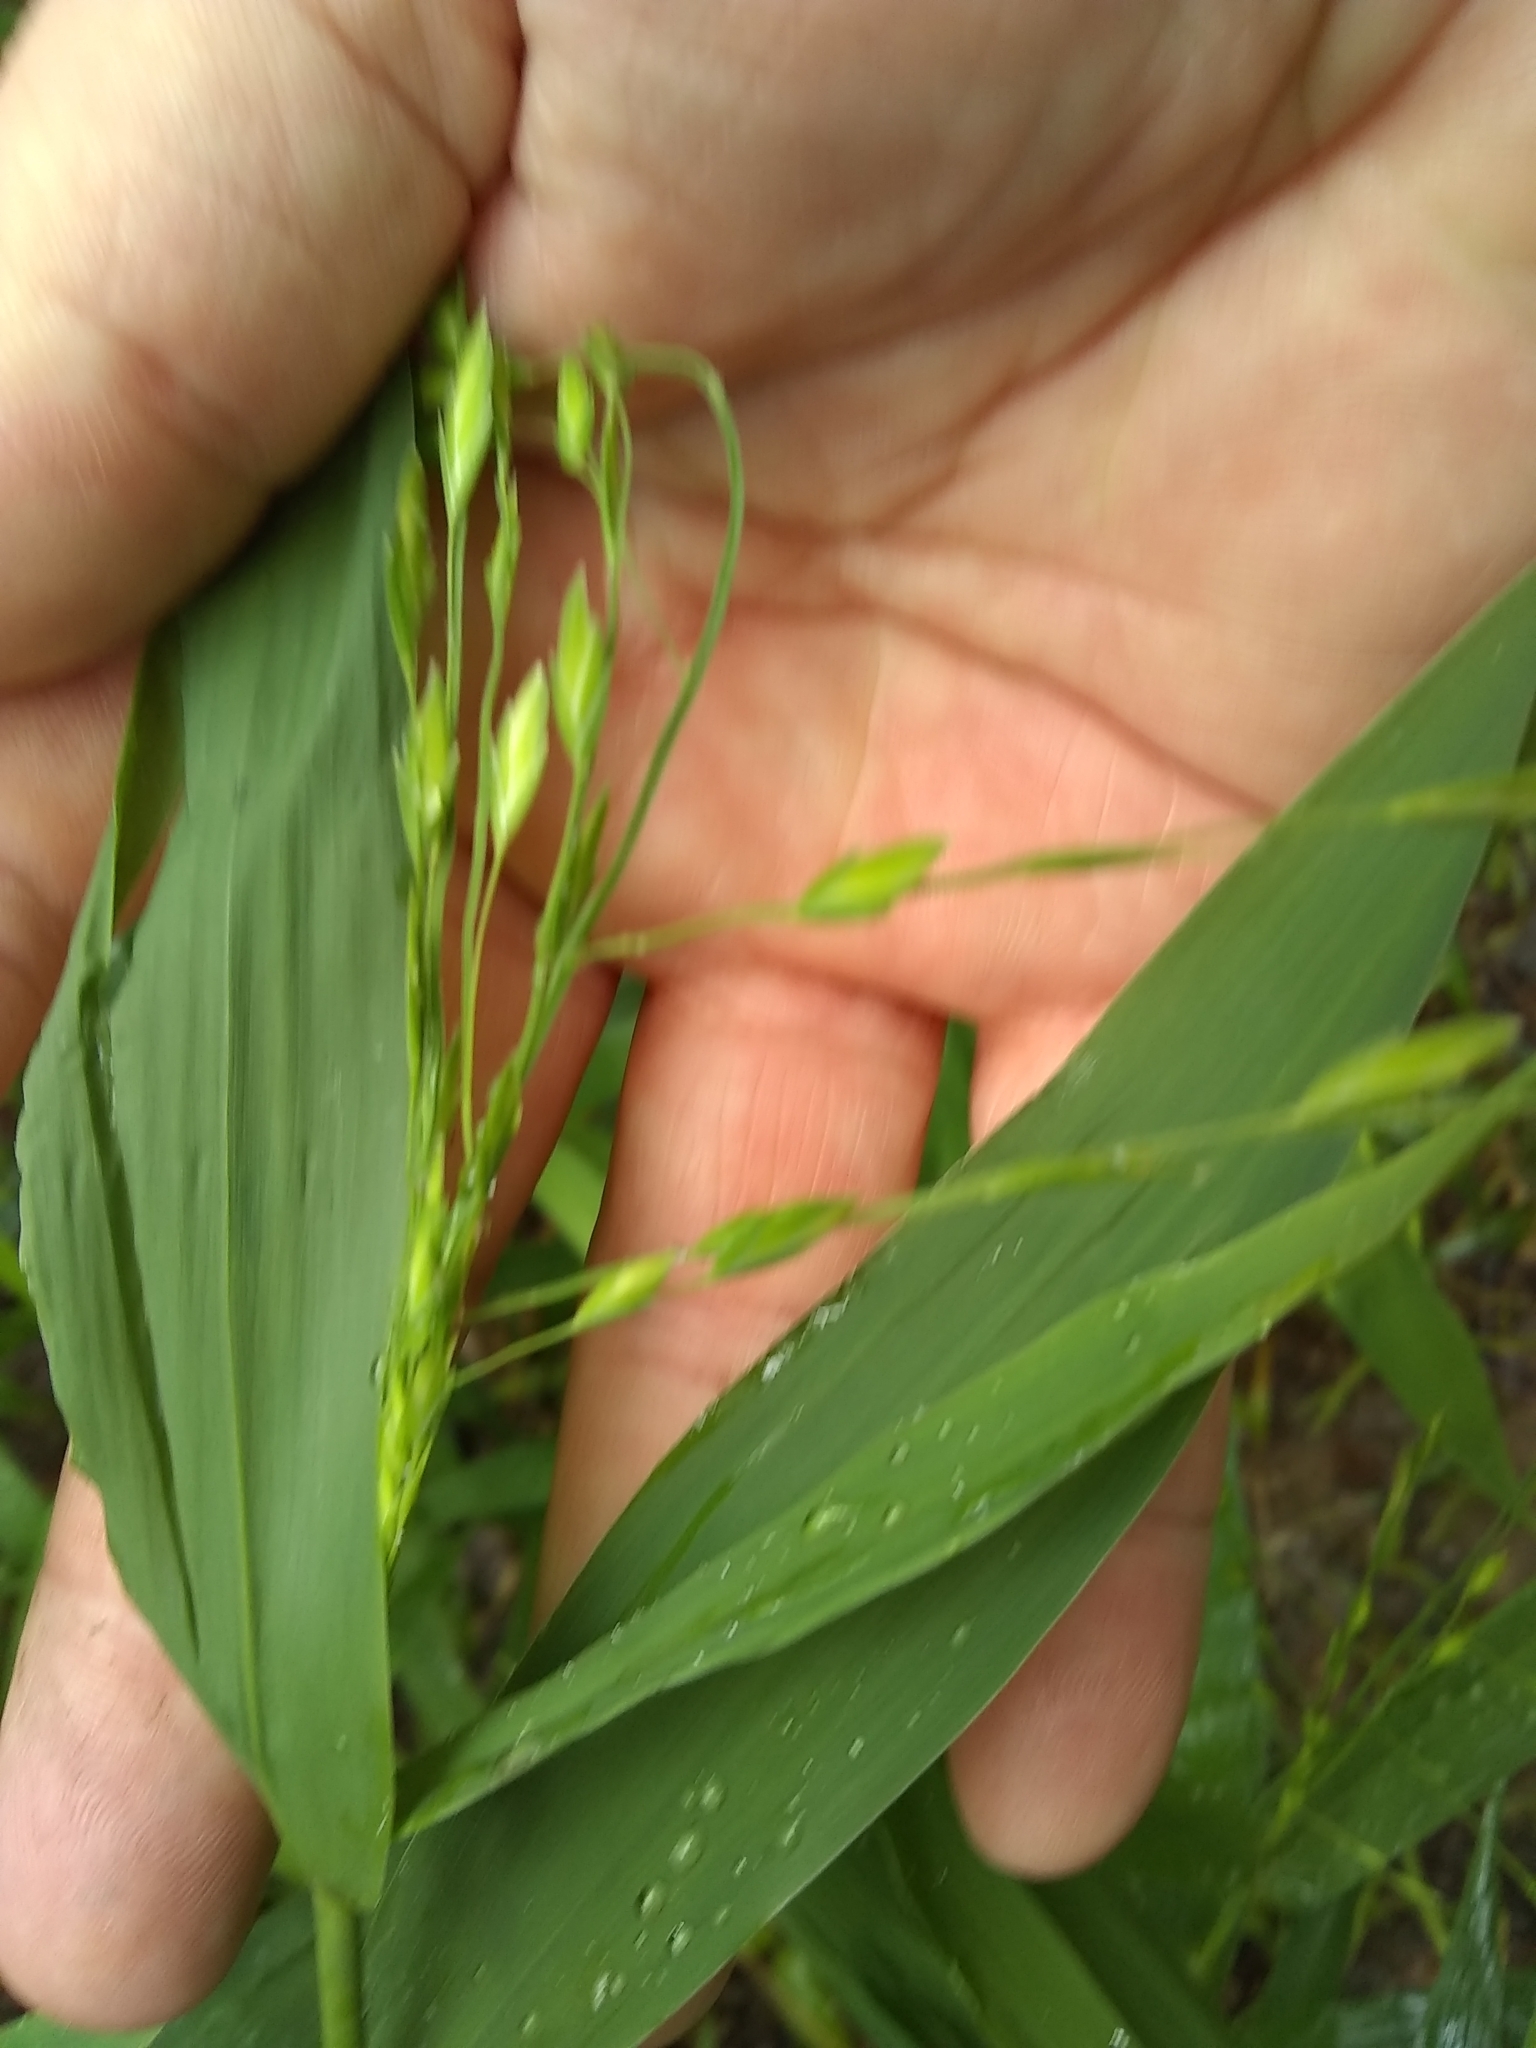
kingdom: Plantae
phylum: Tracheophyta
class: Liliopsida
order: Poales
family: Poaceae
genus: Chasmanthium
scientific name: Chasmanthium latifolium
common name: Broad-leaved chasmanthium
